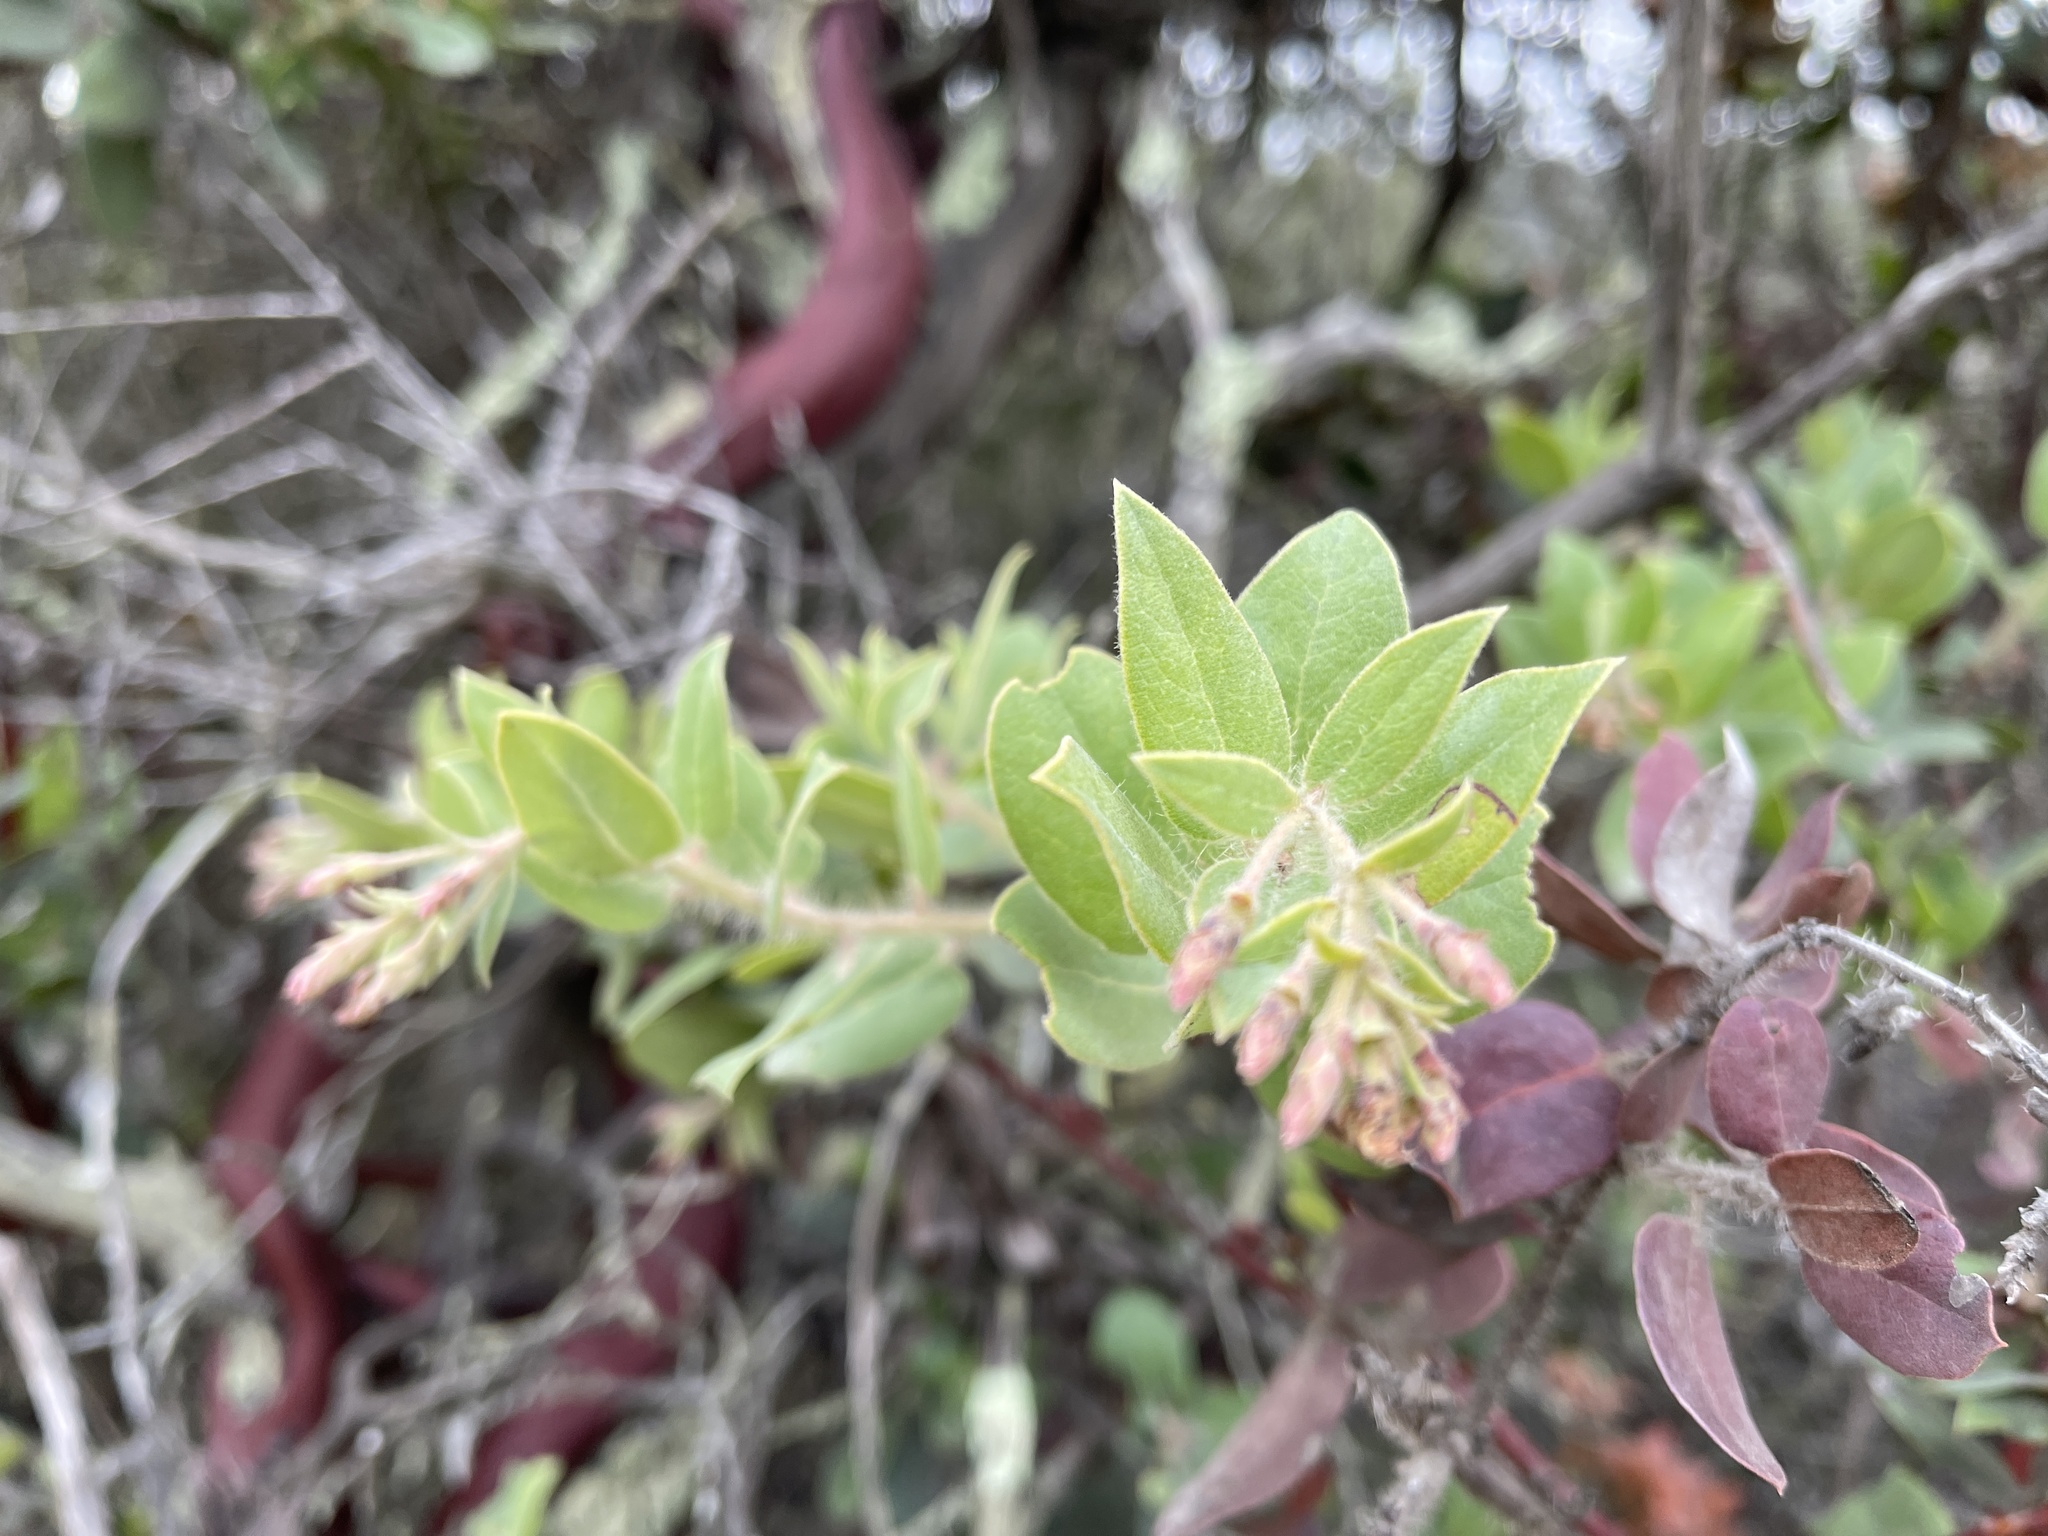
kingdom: Plantae
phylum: Tracheophyta
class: Magnoliopsida
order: Ericales
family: Ericaceae
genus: Arctostaphylos
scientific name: Arctostaphylos crustacea
